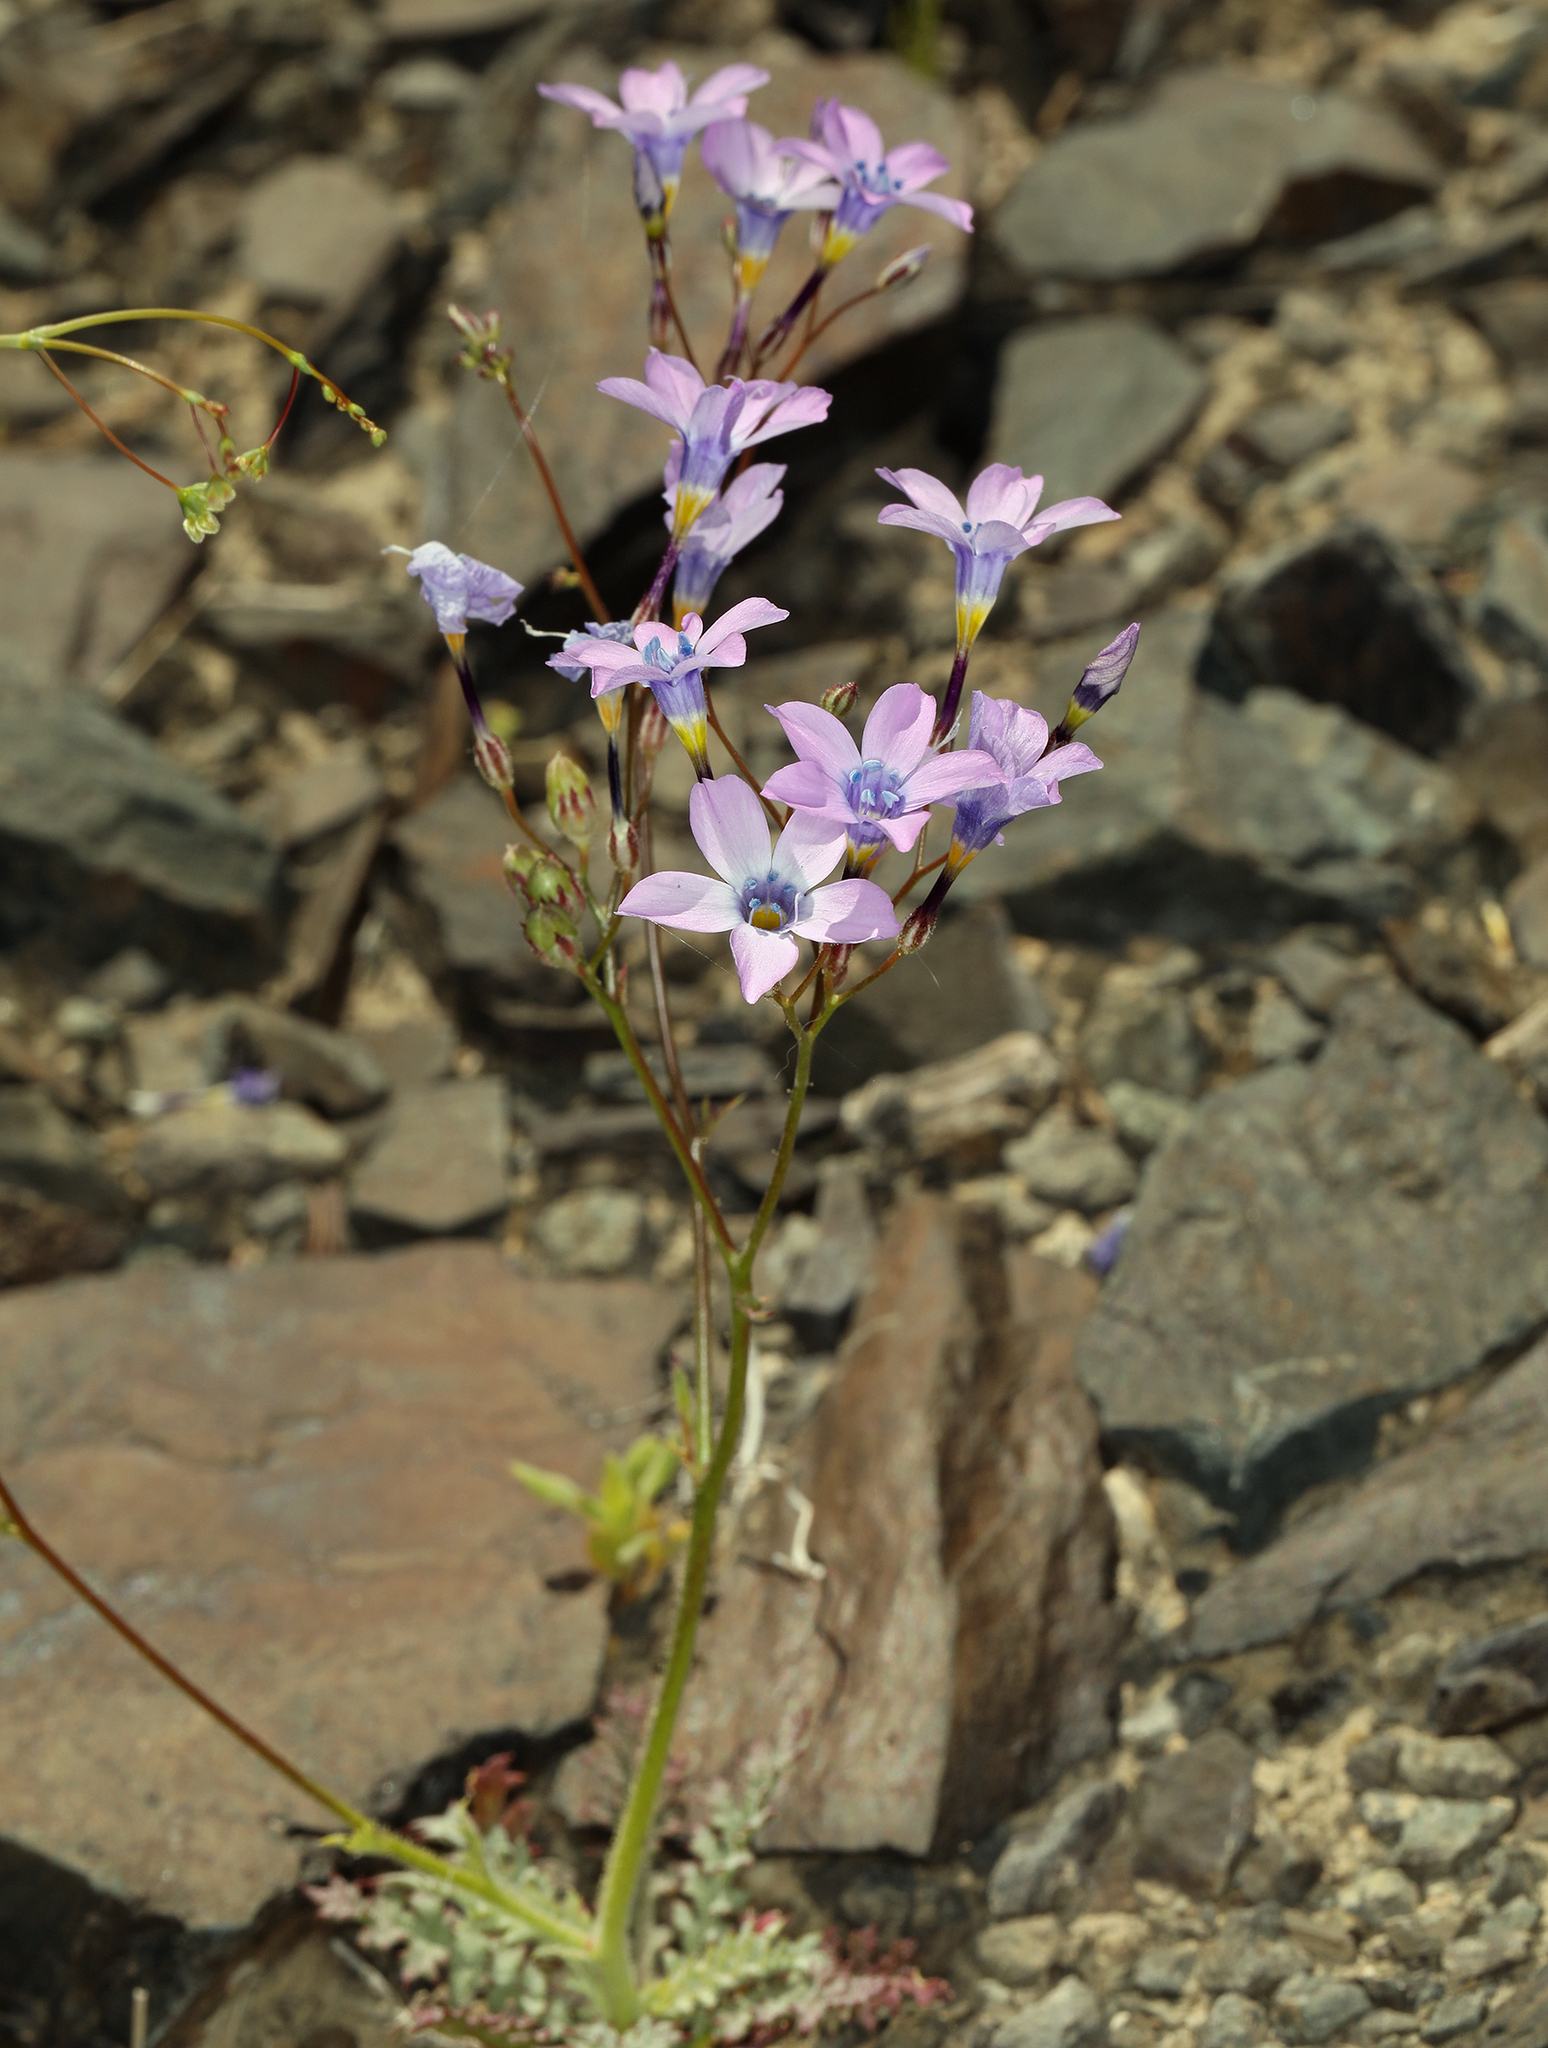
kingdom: Plantae
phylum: Tracheophyta
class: Magnoliopsida
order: Ericales
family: Polemoniaceae
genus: Gilia
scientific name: Gilia cana
